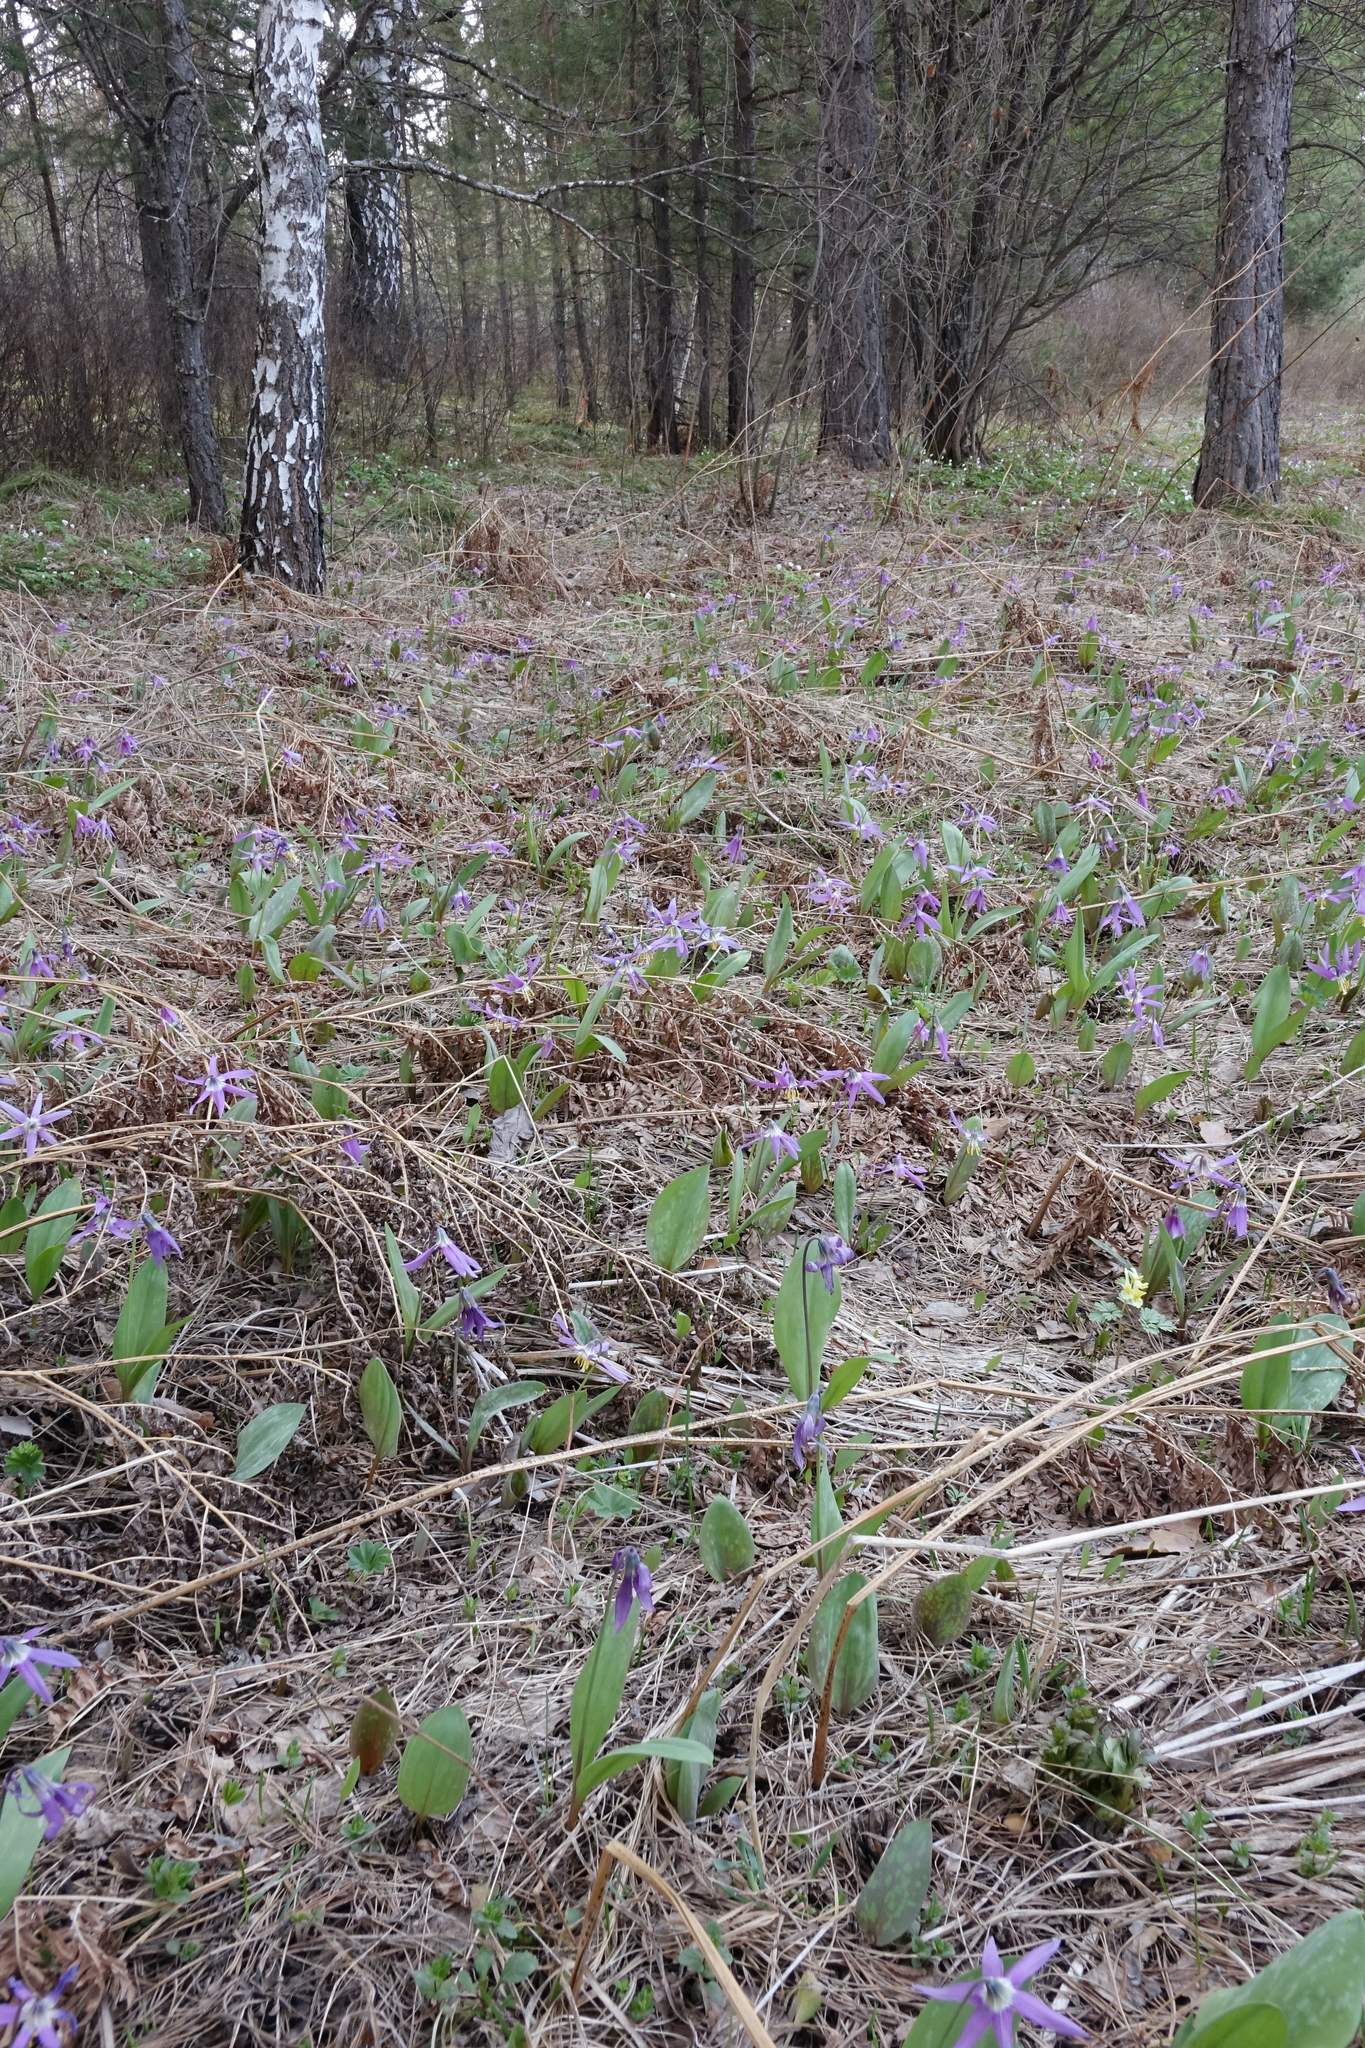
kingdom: Plantae
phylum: Tracheophyta
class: Liliopsida
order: Liliales
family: Liliaceae
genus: Erythronium
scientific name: Erythronium sibiricum
